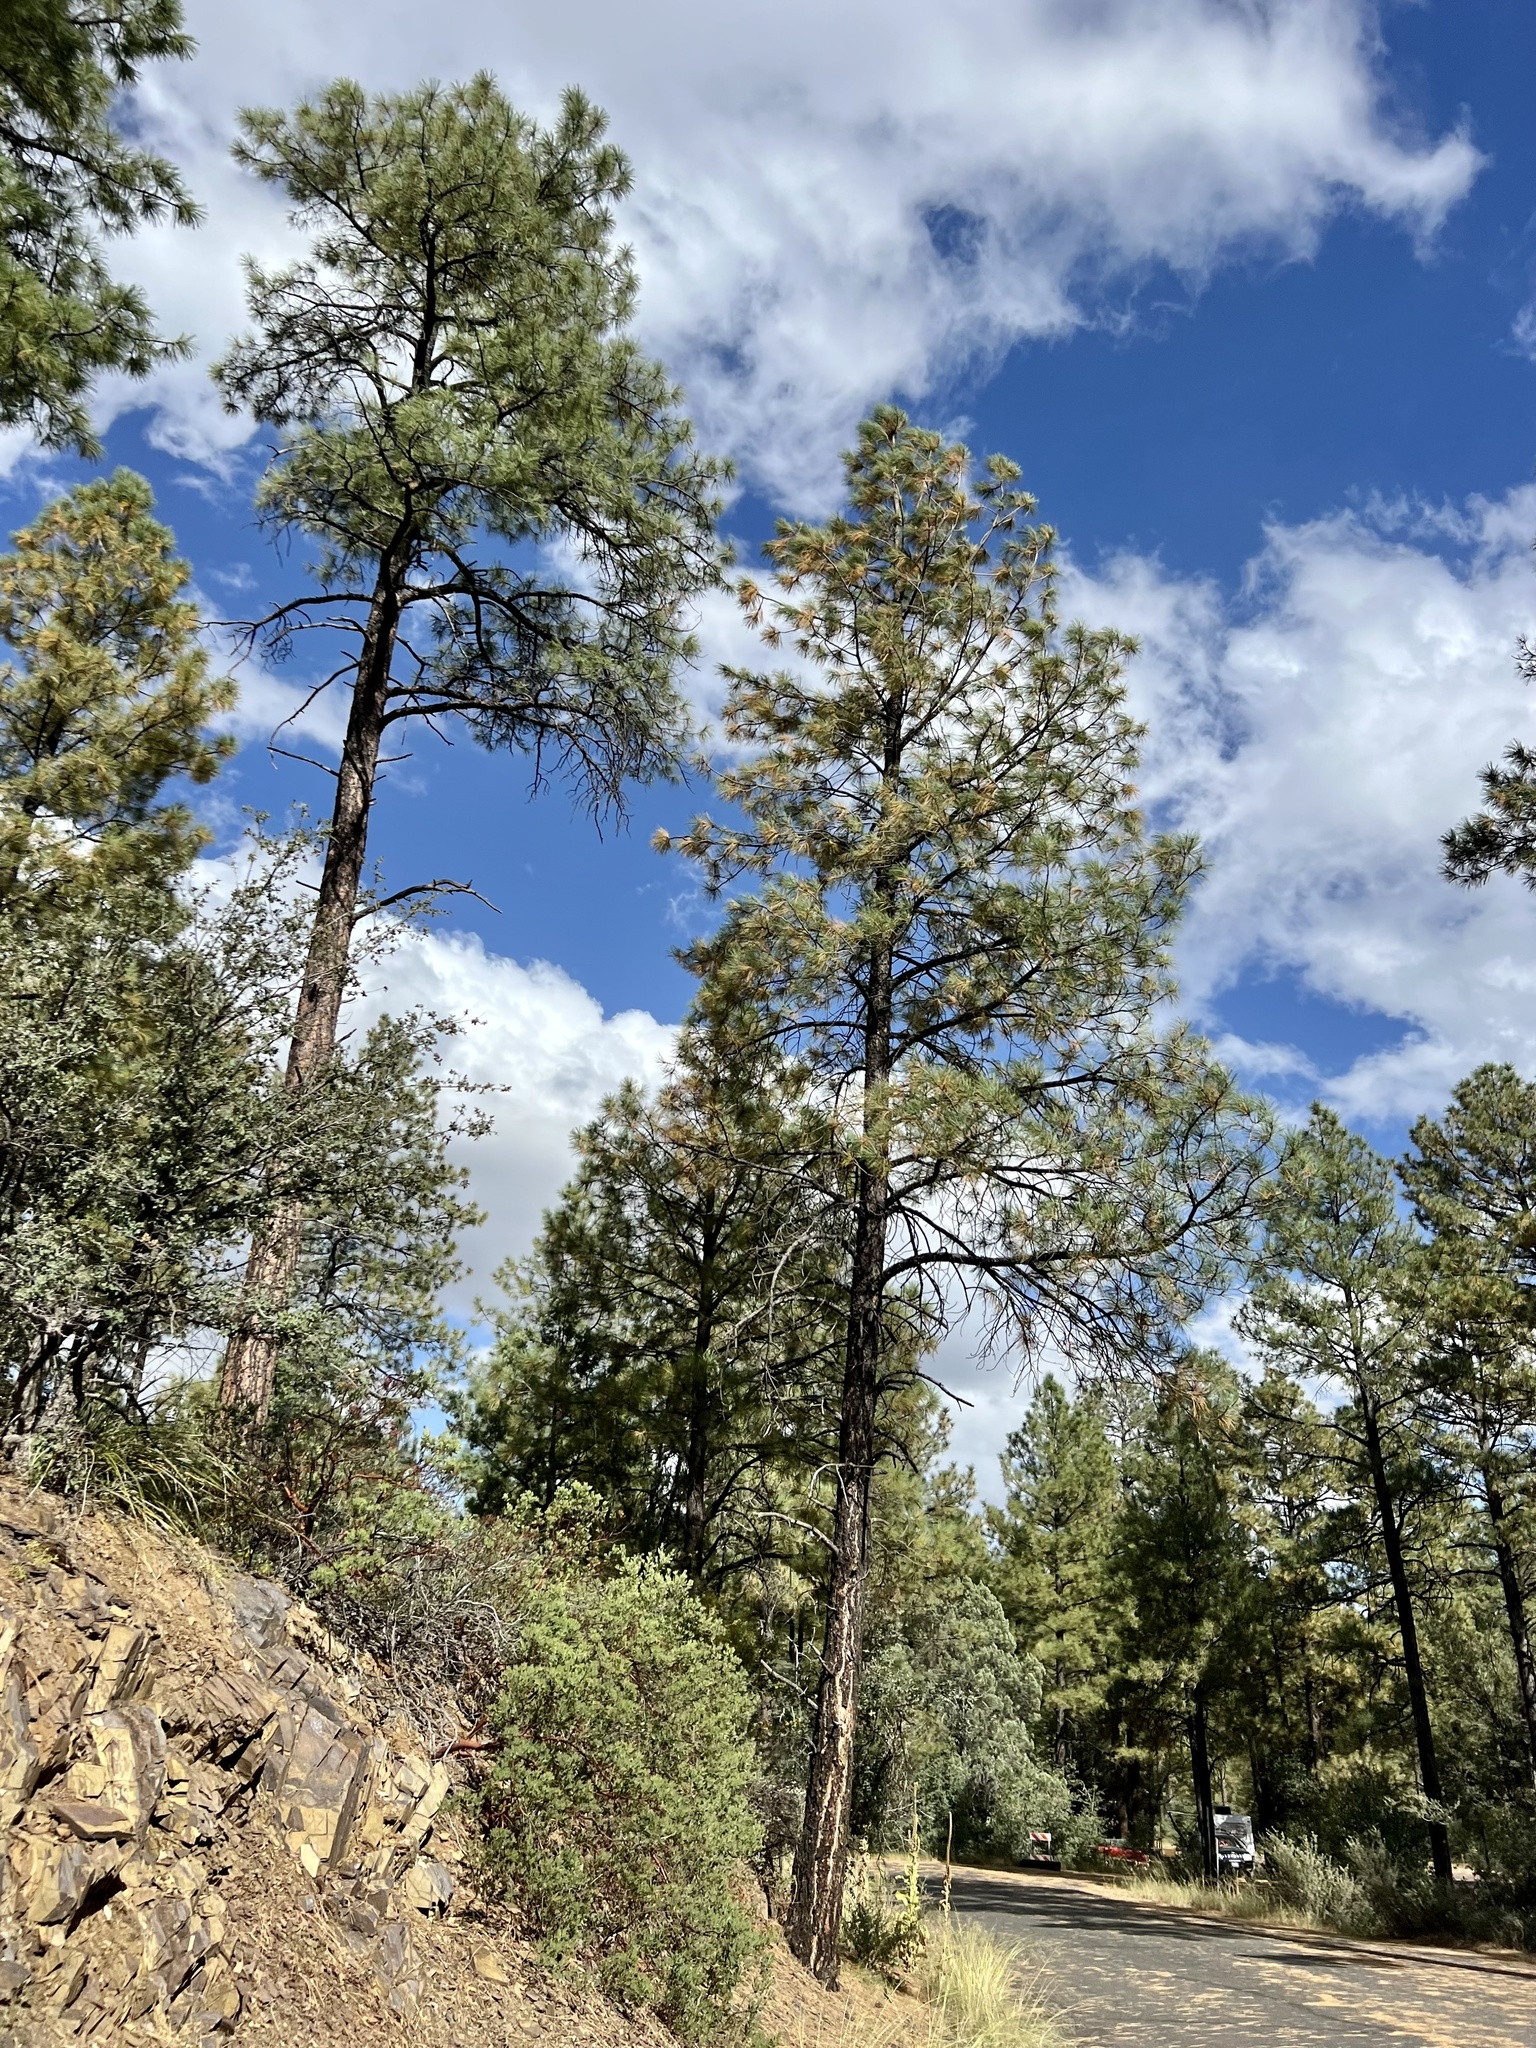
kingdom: Plantae
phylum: Tracheophyta
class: Pinopsida
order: Pinales
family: Pinaceae
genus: Pinus
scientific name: Pinus ponderosa
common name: Western yellow-pine
